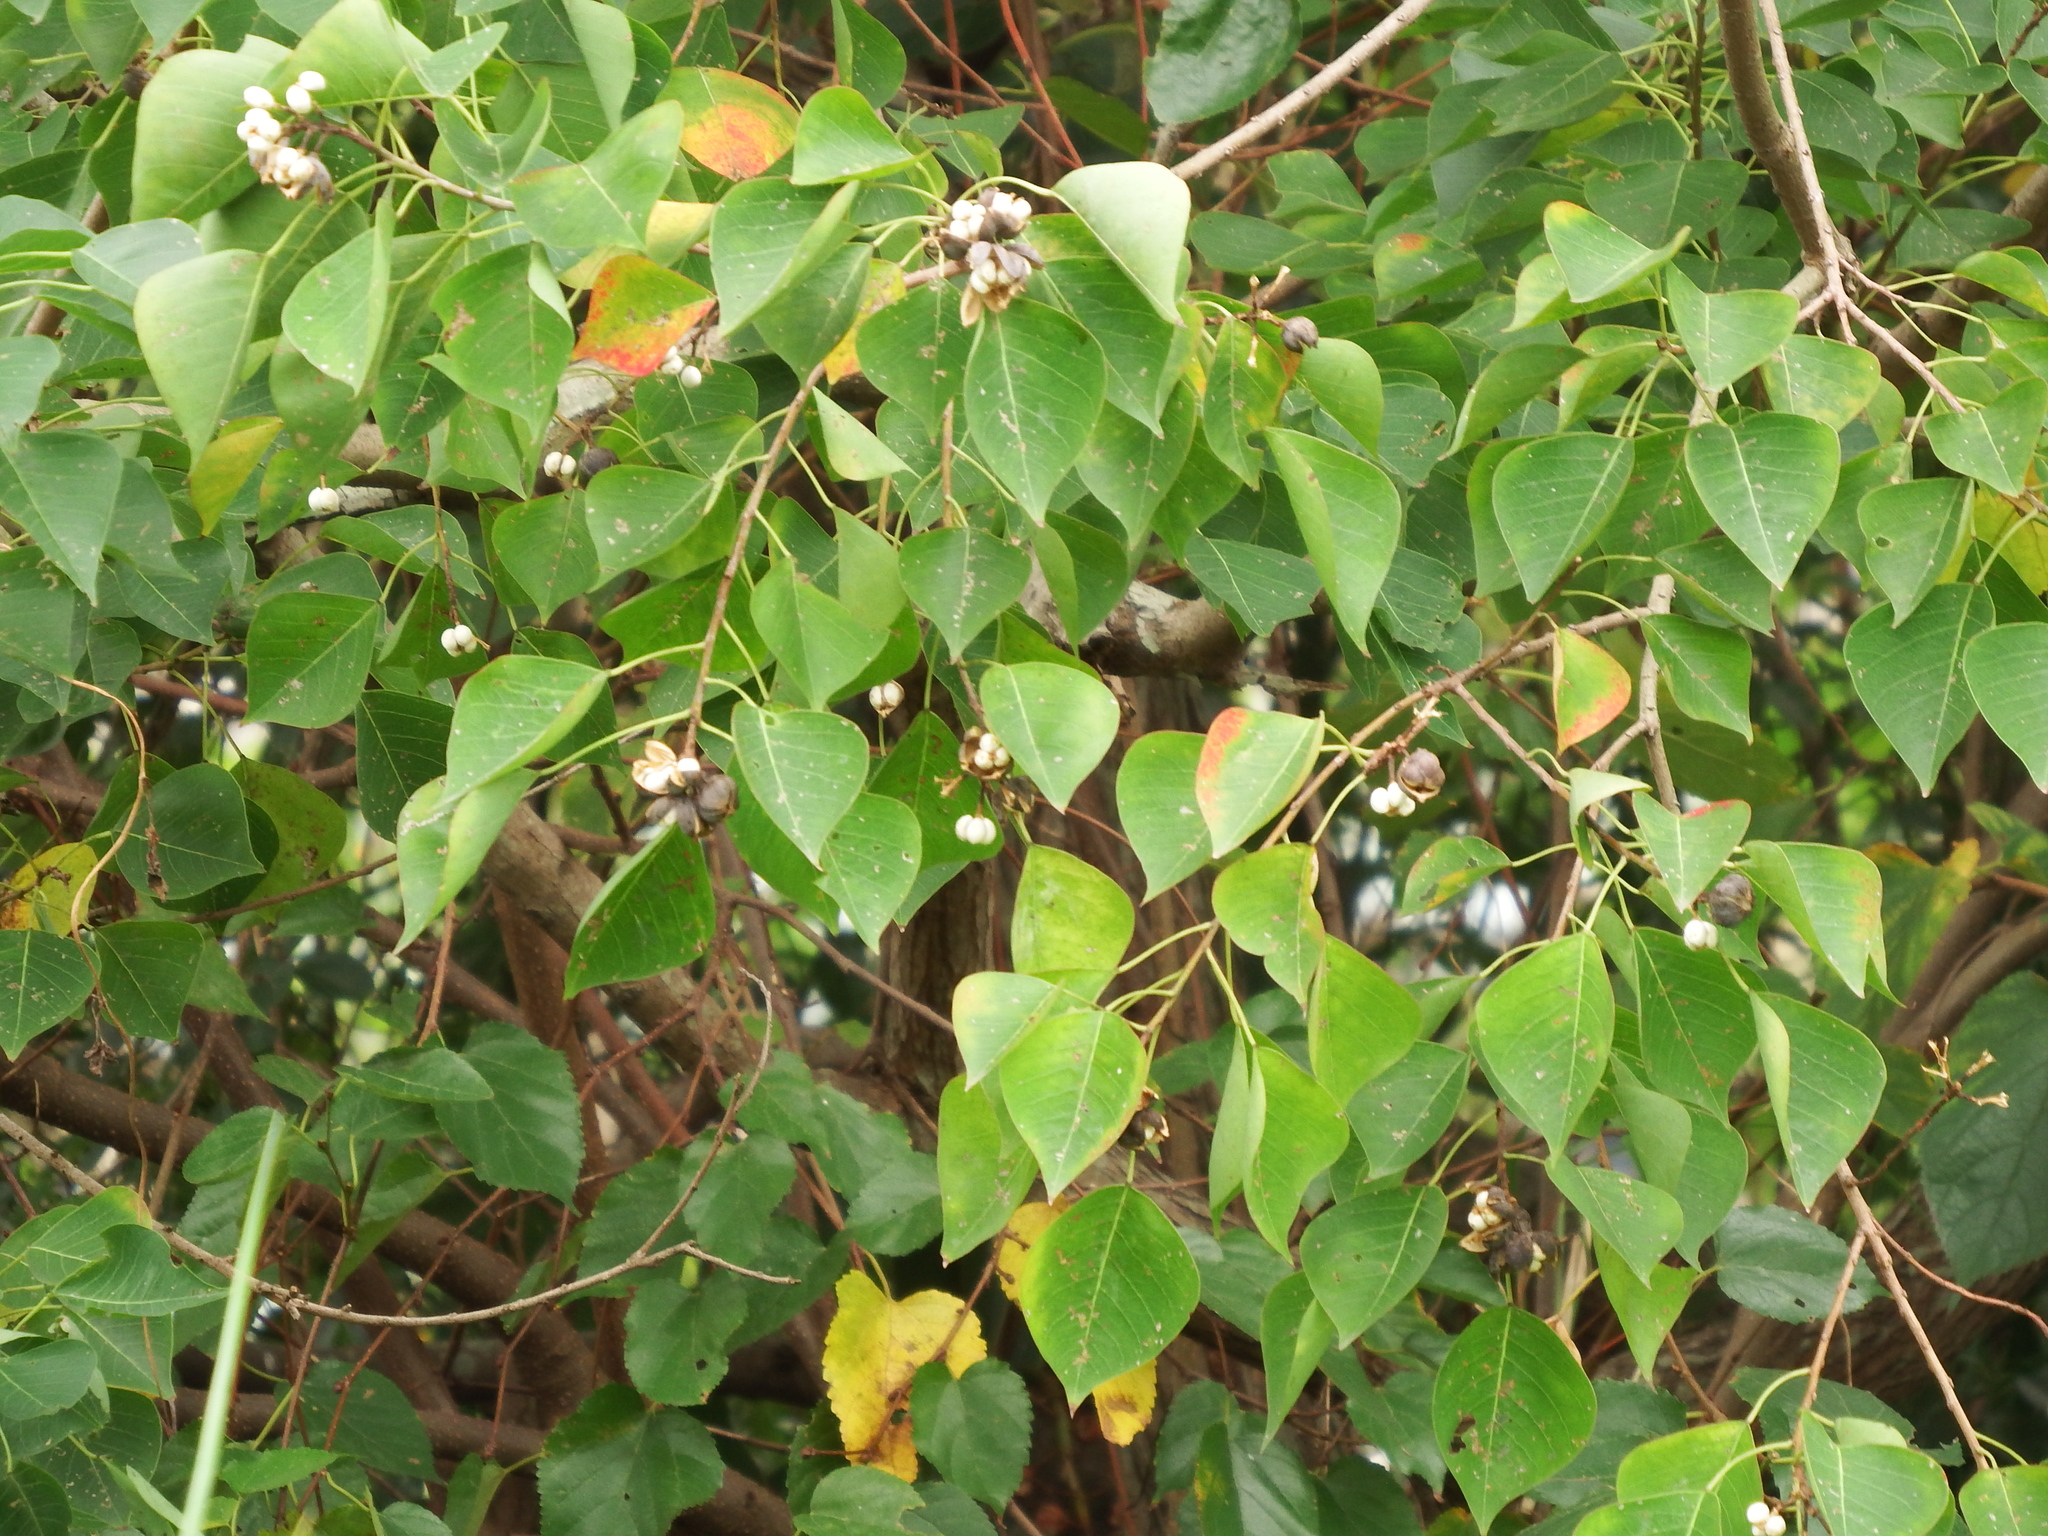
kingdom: Plantae
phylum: Tracheophyta
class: Magnoliopsida
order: Malpighiales
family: Euphorbiaceae
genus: Triadica
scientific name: Triadica sebifera
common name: Chinese tallow
